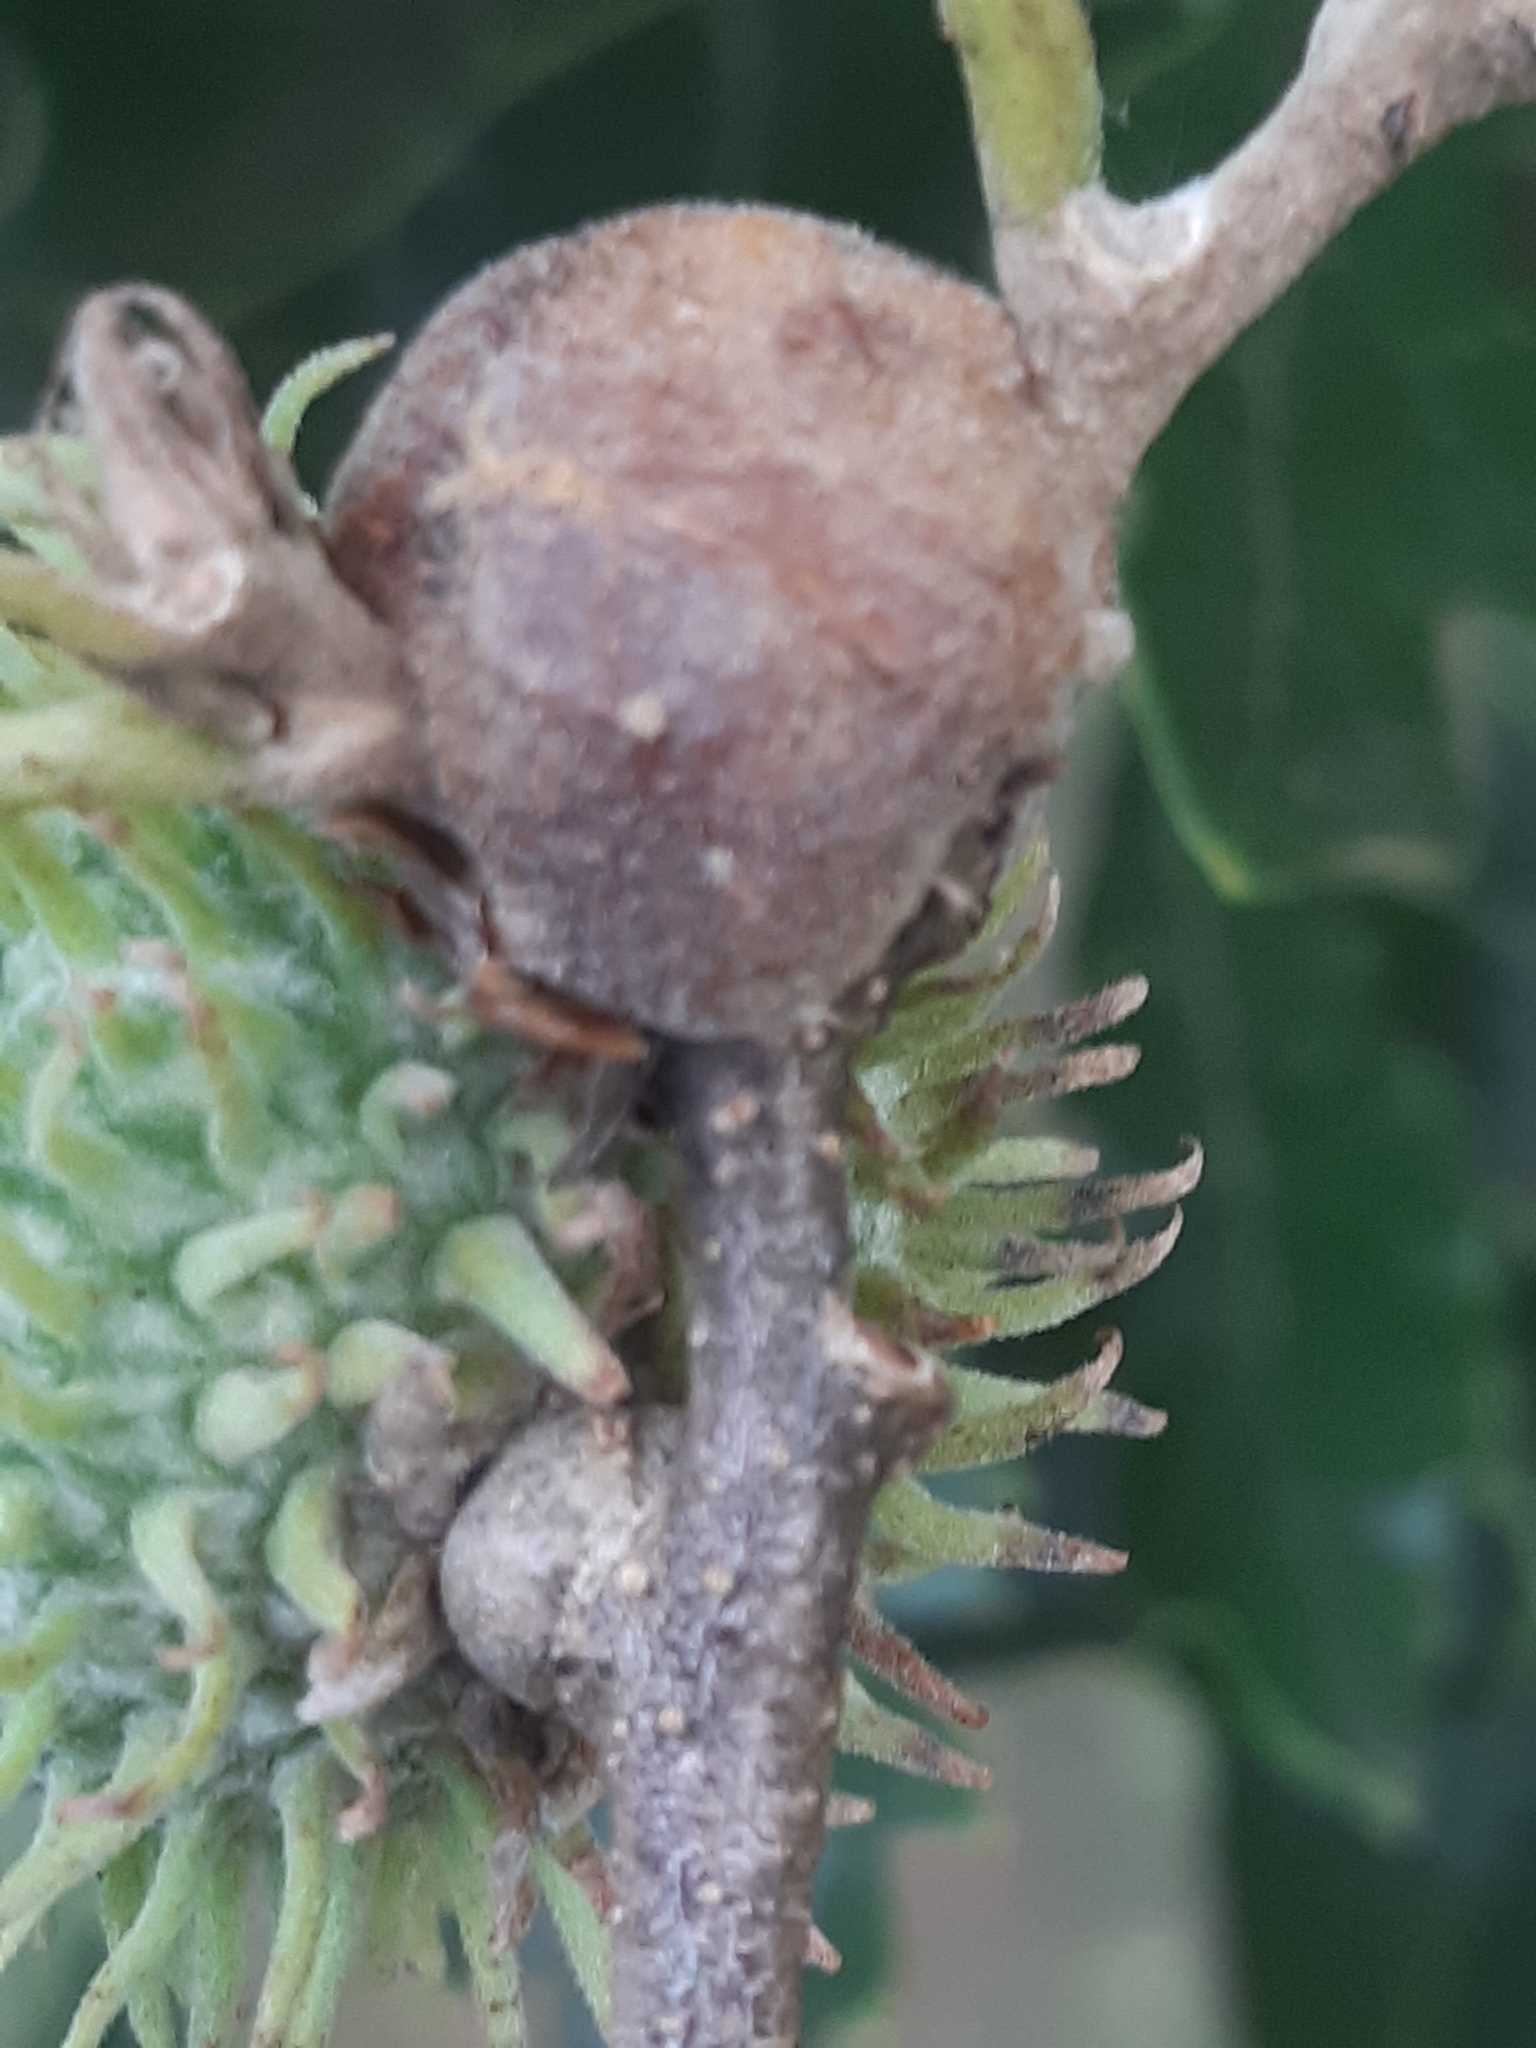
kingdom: Animalia
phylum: Arthropoda
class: Insecta
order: Hymenoptera
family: Cynipidae
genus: Aphelonyx
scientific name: Aphelonyx cerricola
